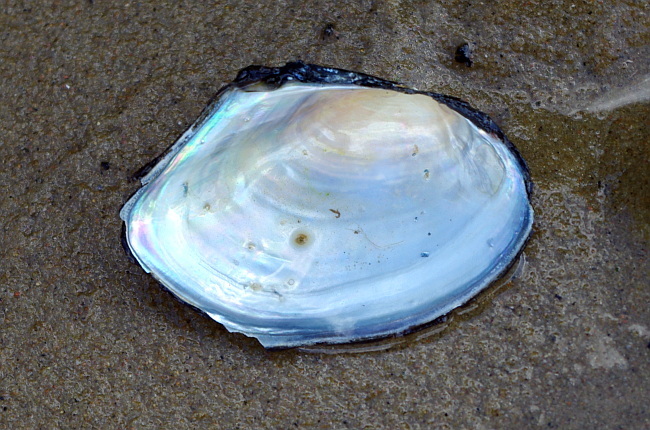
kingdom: Animalia
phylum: Mollusca
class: Bivalvia
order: Unionida
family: Unionidae
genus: Anodonta
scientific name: Anodonta anatina
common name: Duck mussel
